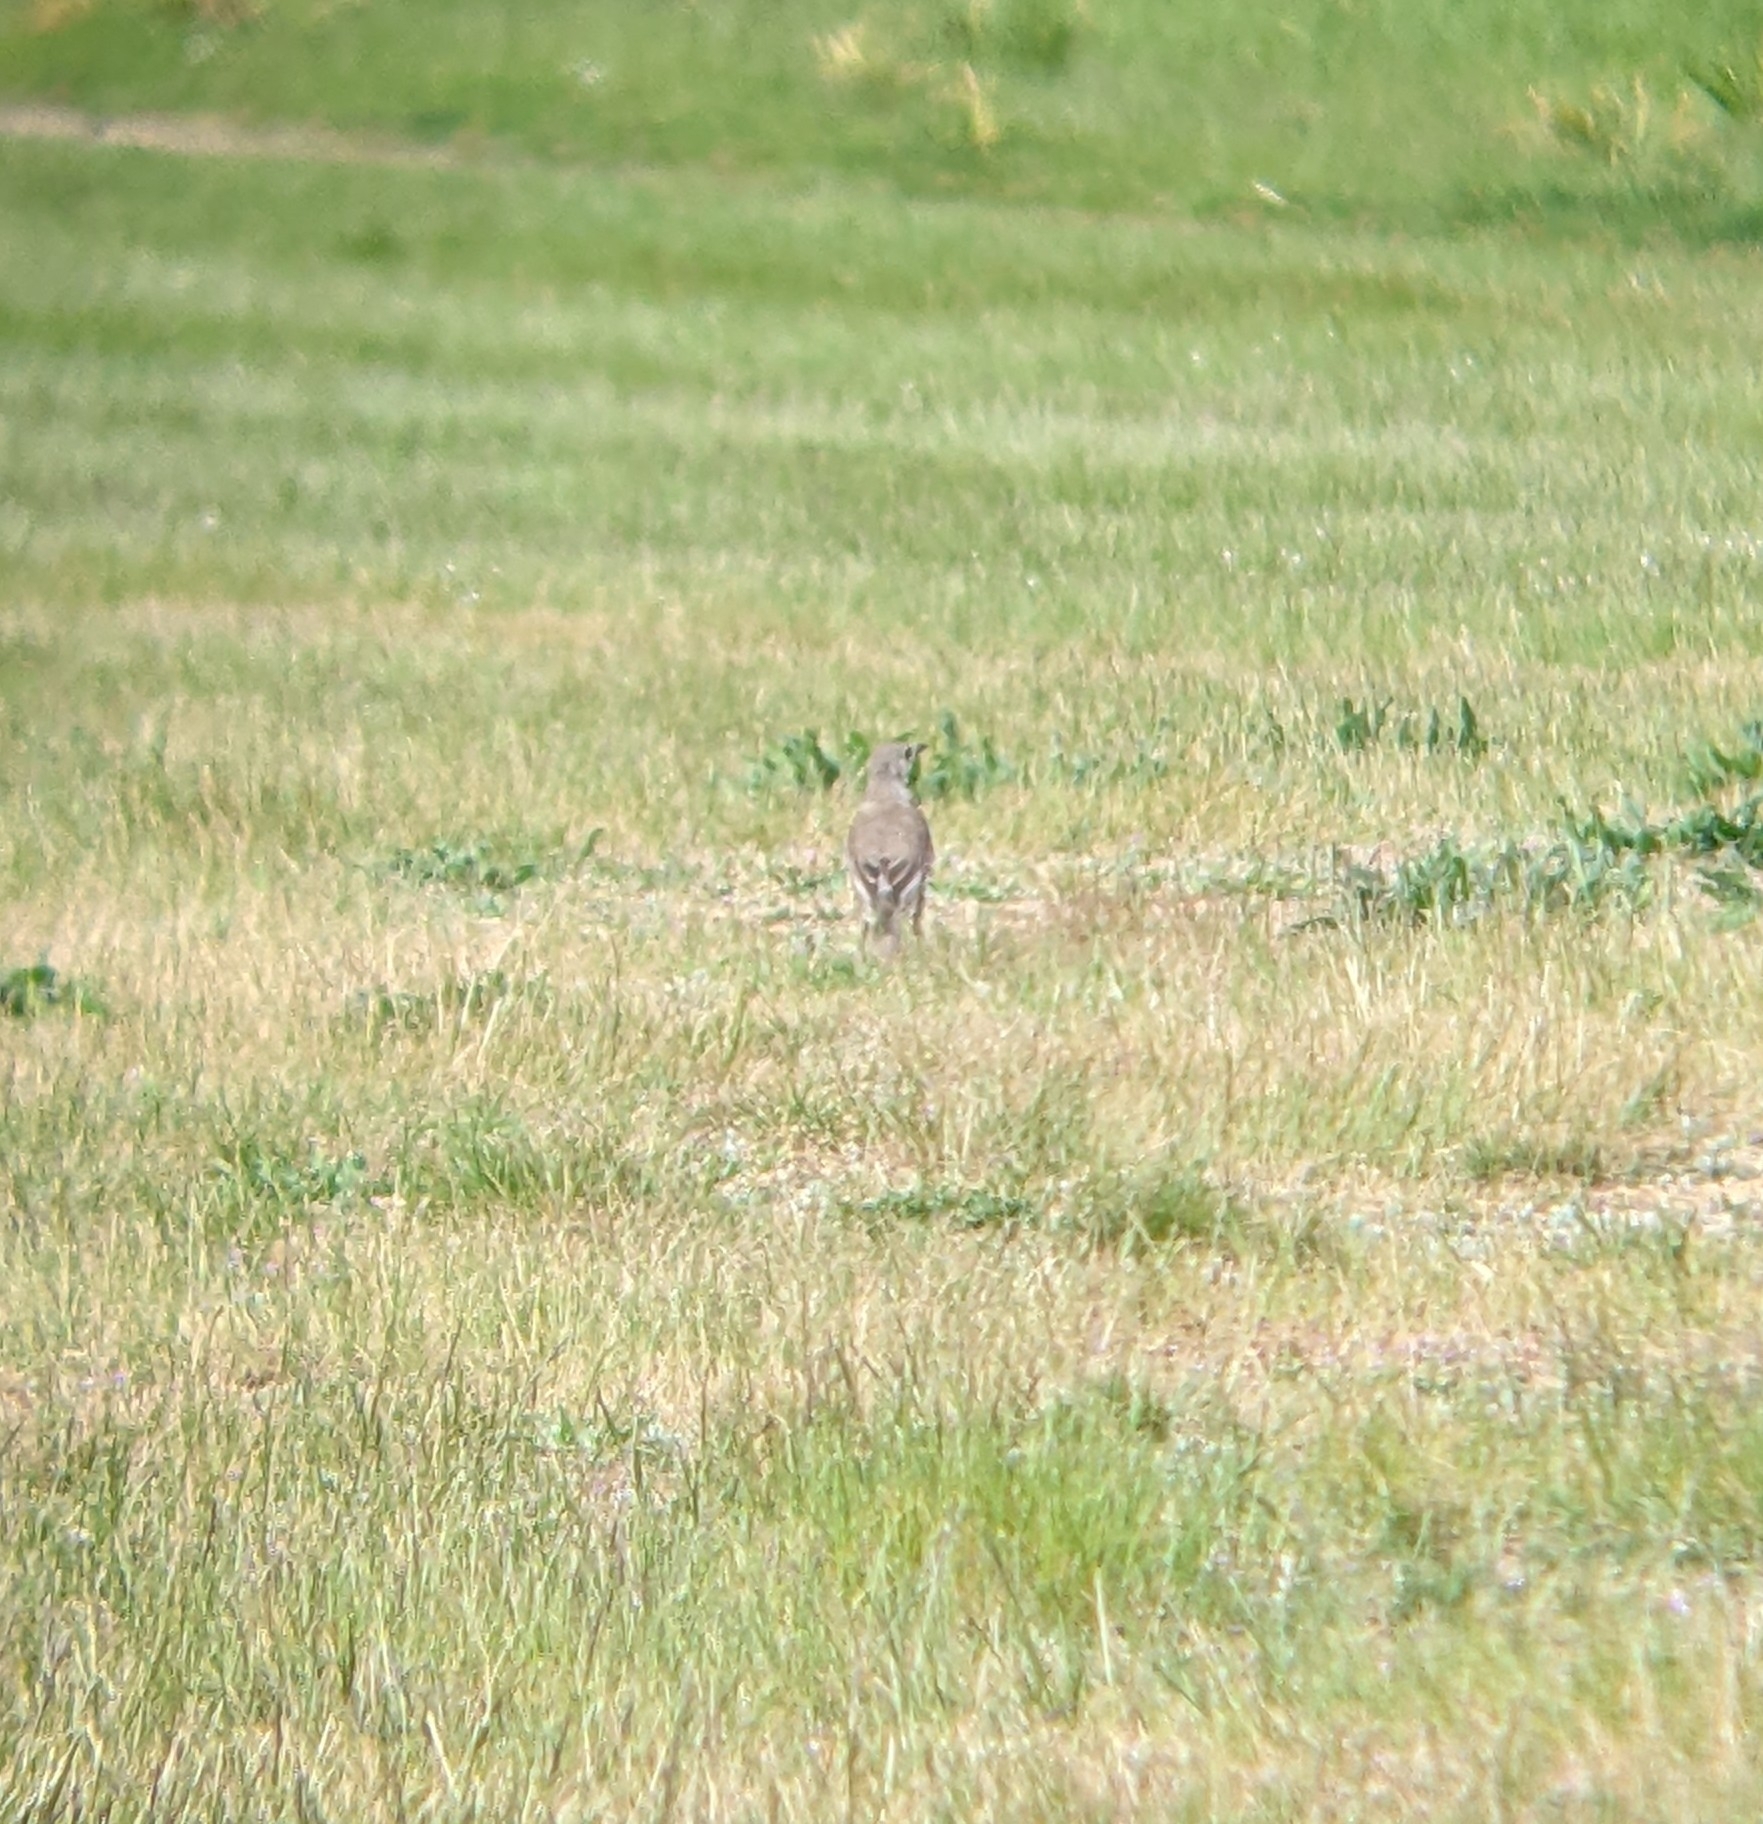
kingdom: Animalia
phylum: Chordata
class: Aves
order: Passeriformes
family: Turdidae
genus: Turdus
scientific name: Turdus viscivorus
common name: Mistle thrush
